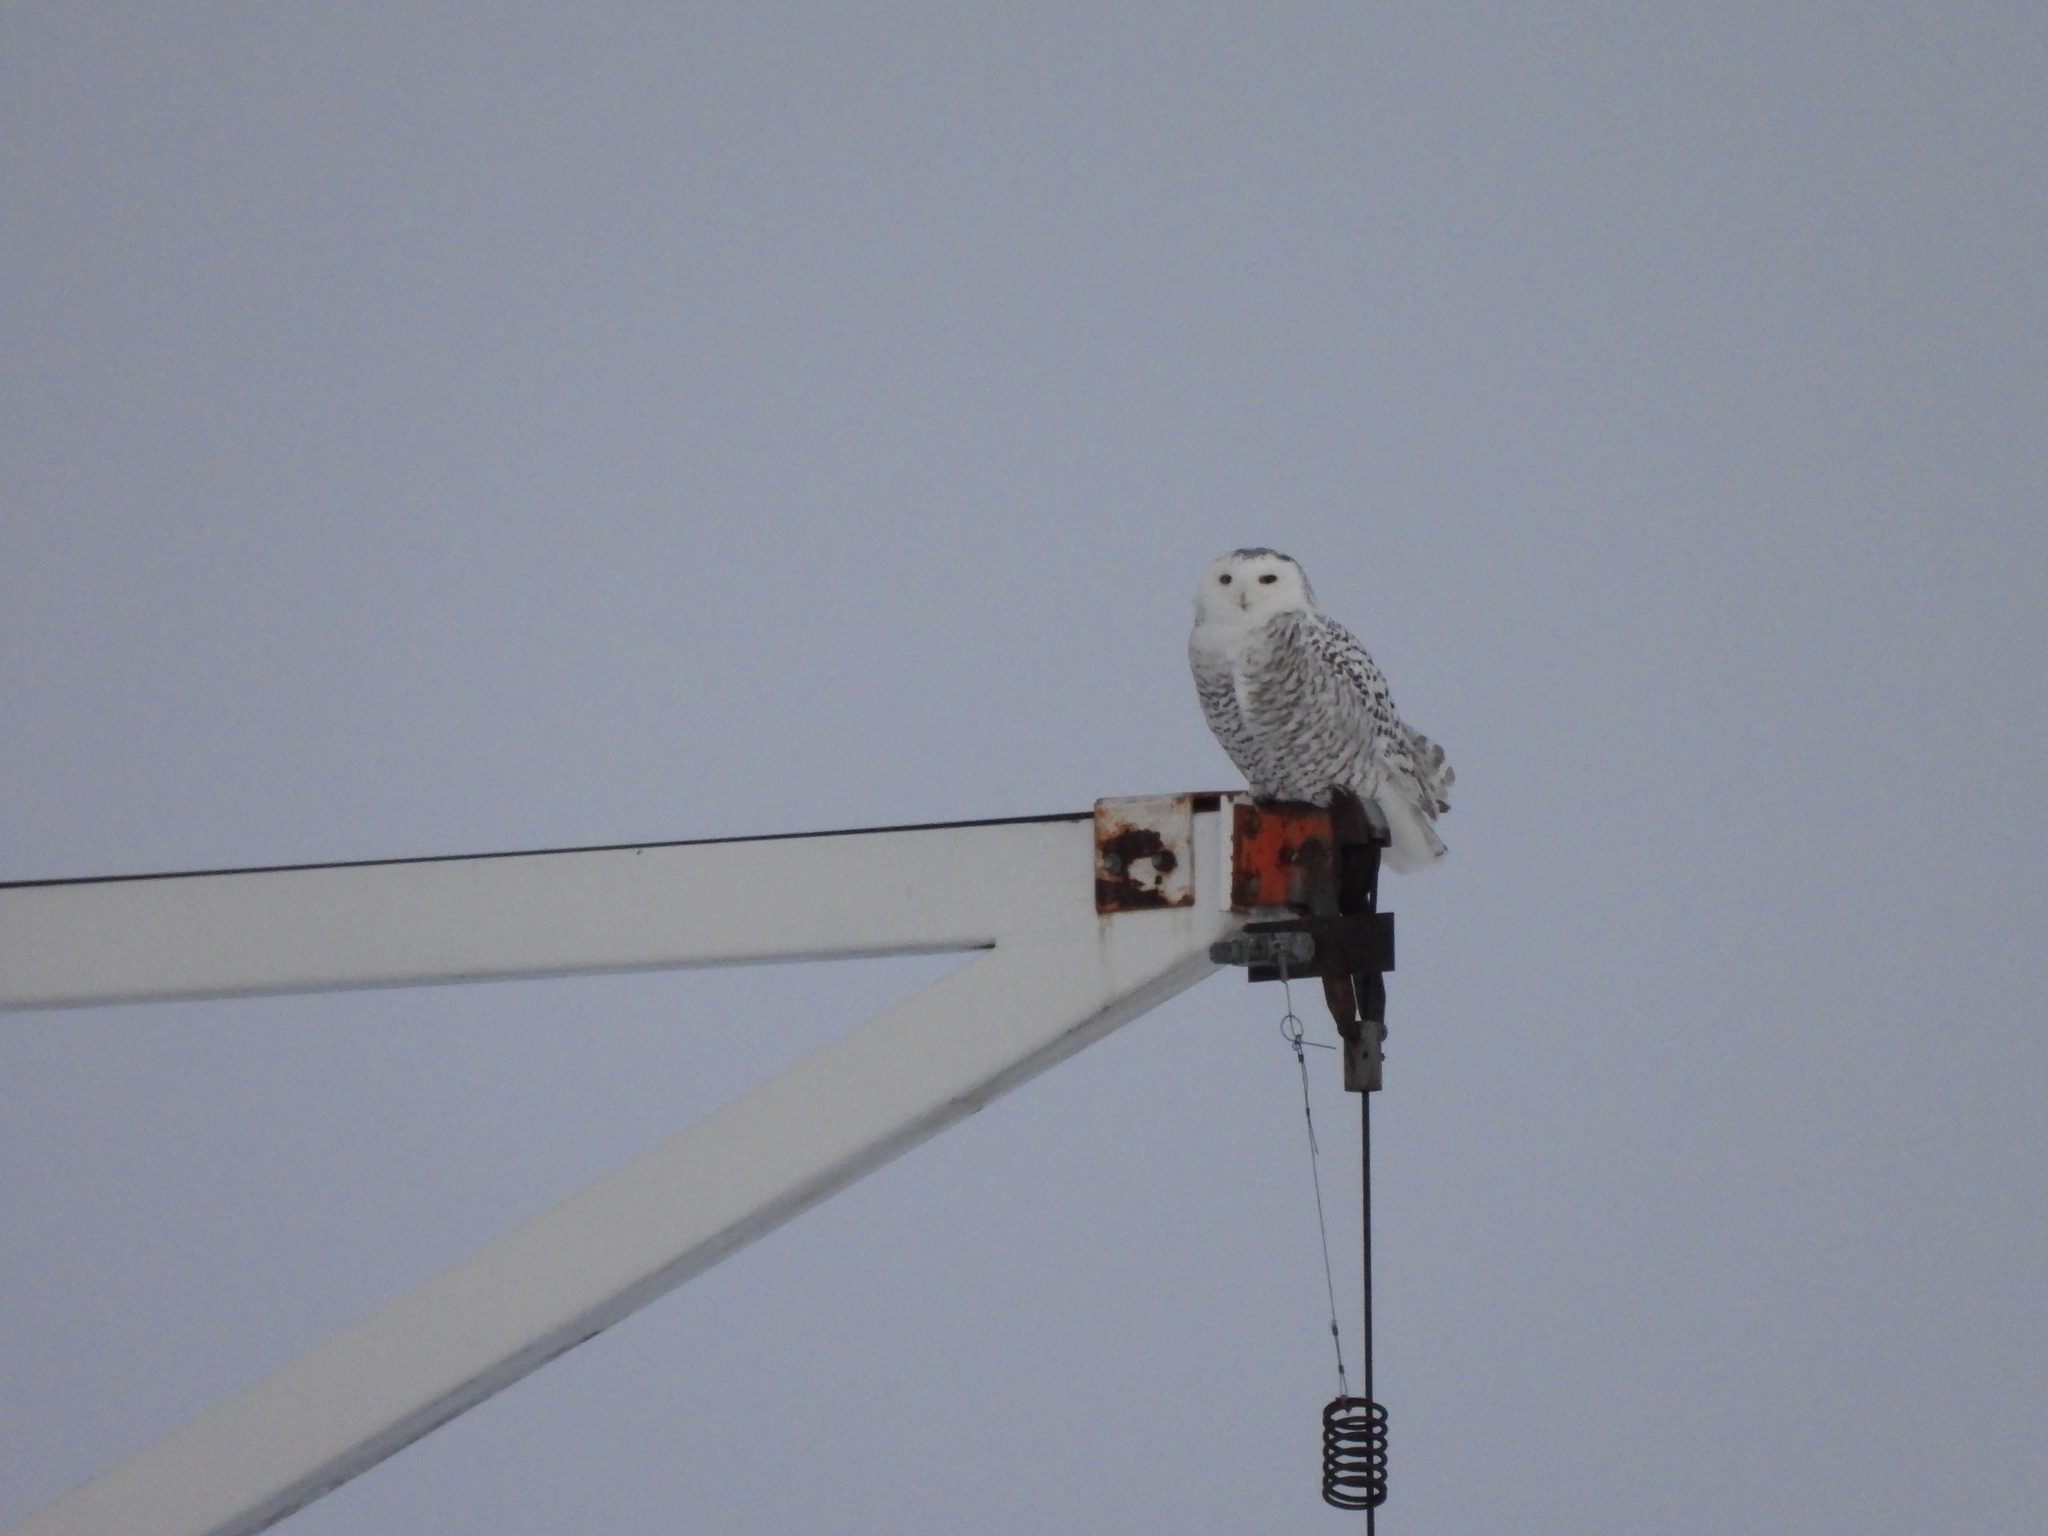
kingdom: Animalia
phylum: Chordata
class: Aves
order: Strigiformes
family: Strigidae
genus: Bubo
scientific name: Bubo scandiacus
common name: Snowy owl
